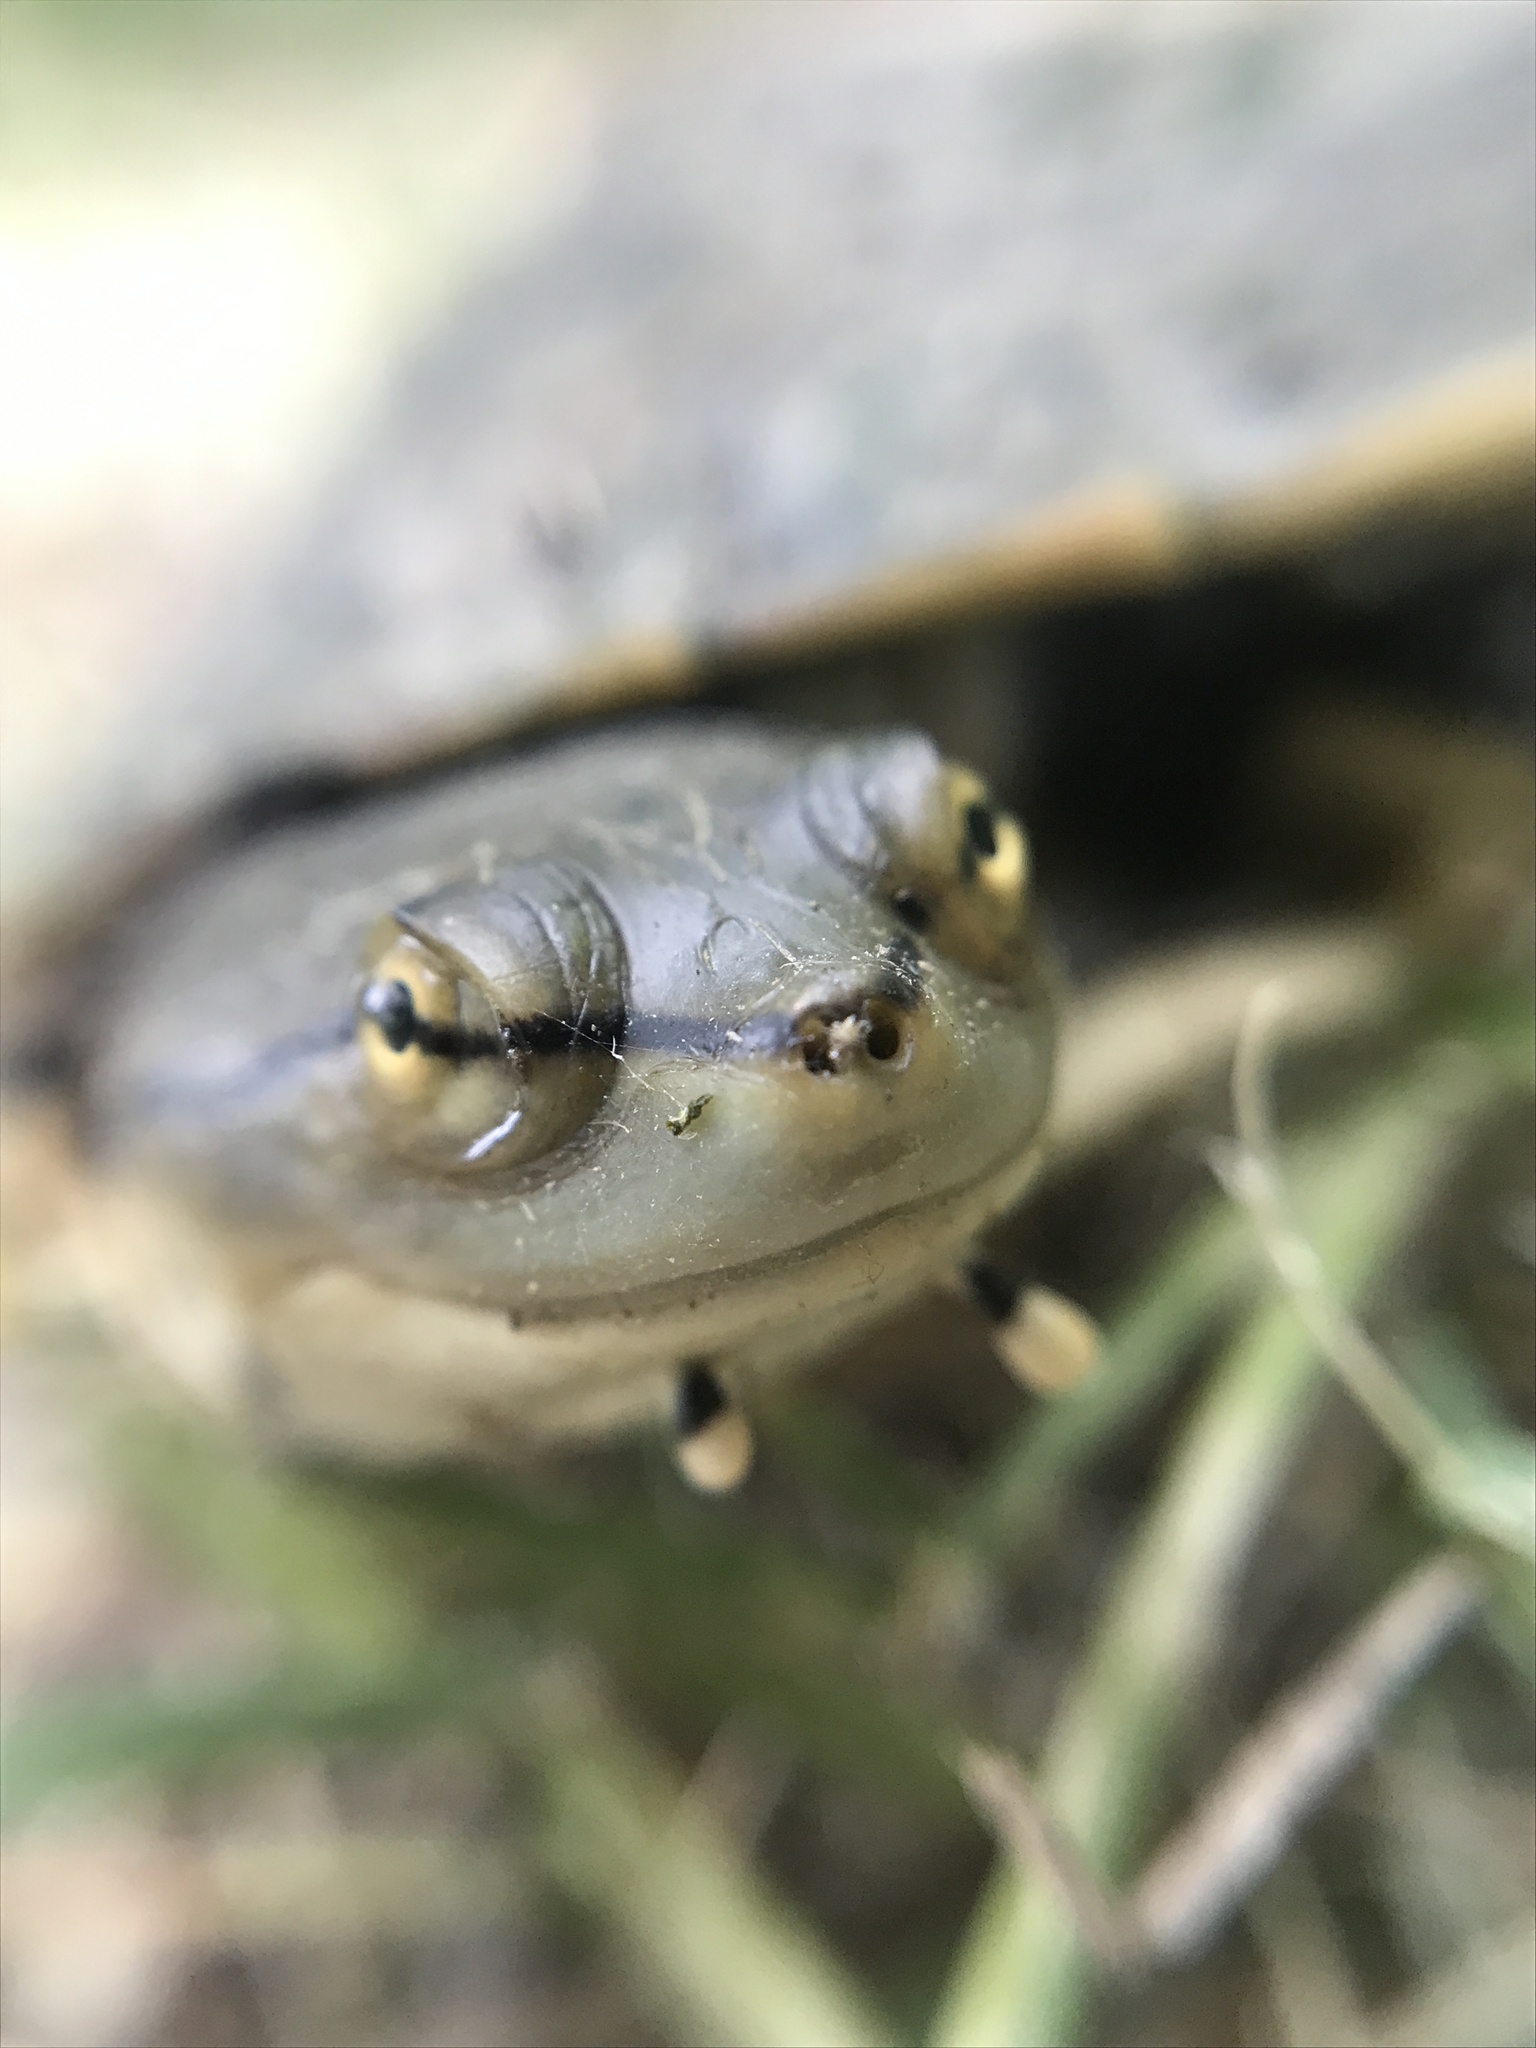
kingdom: Animalia
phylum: Chordata
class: Testudines
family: Chelidae
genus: Phrynops
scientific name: Phrynops hilarii
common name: Side-necked turtle of saint hillaire
